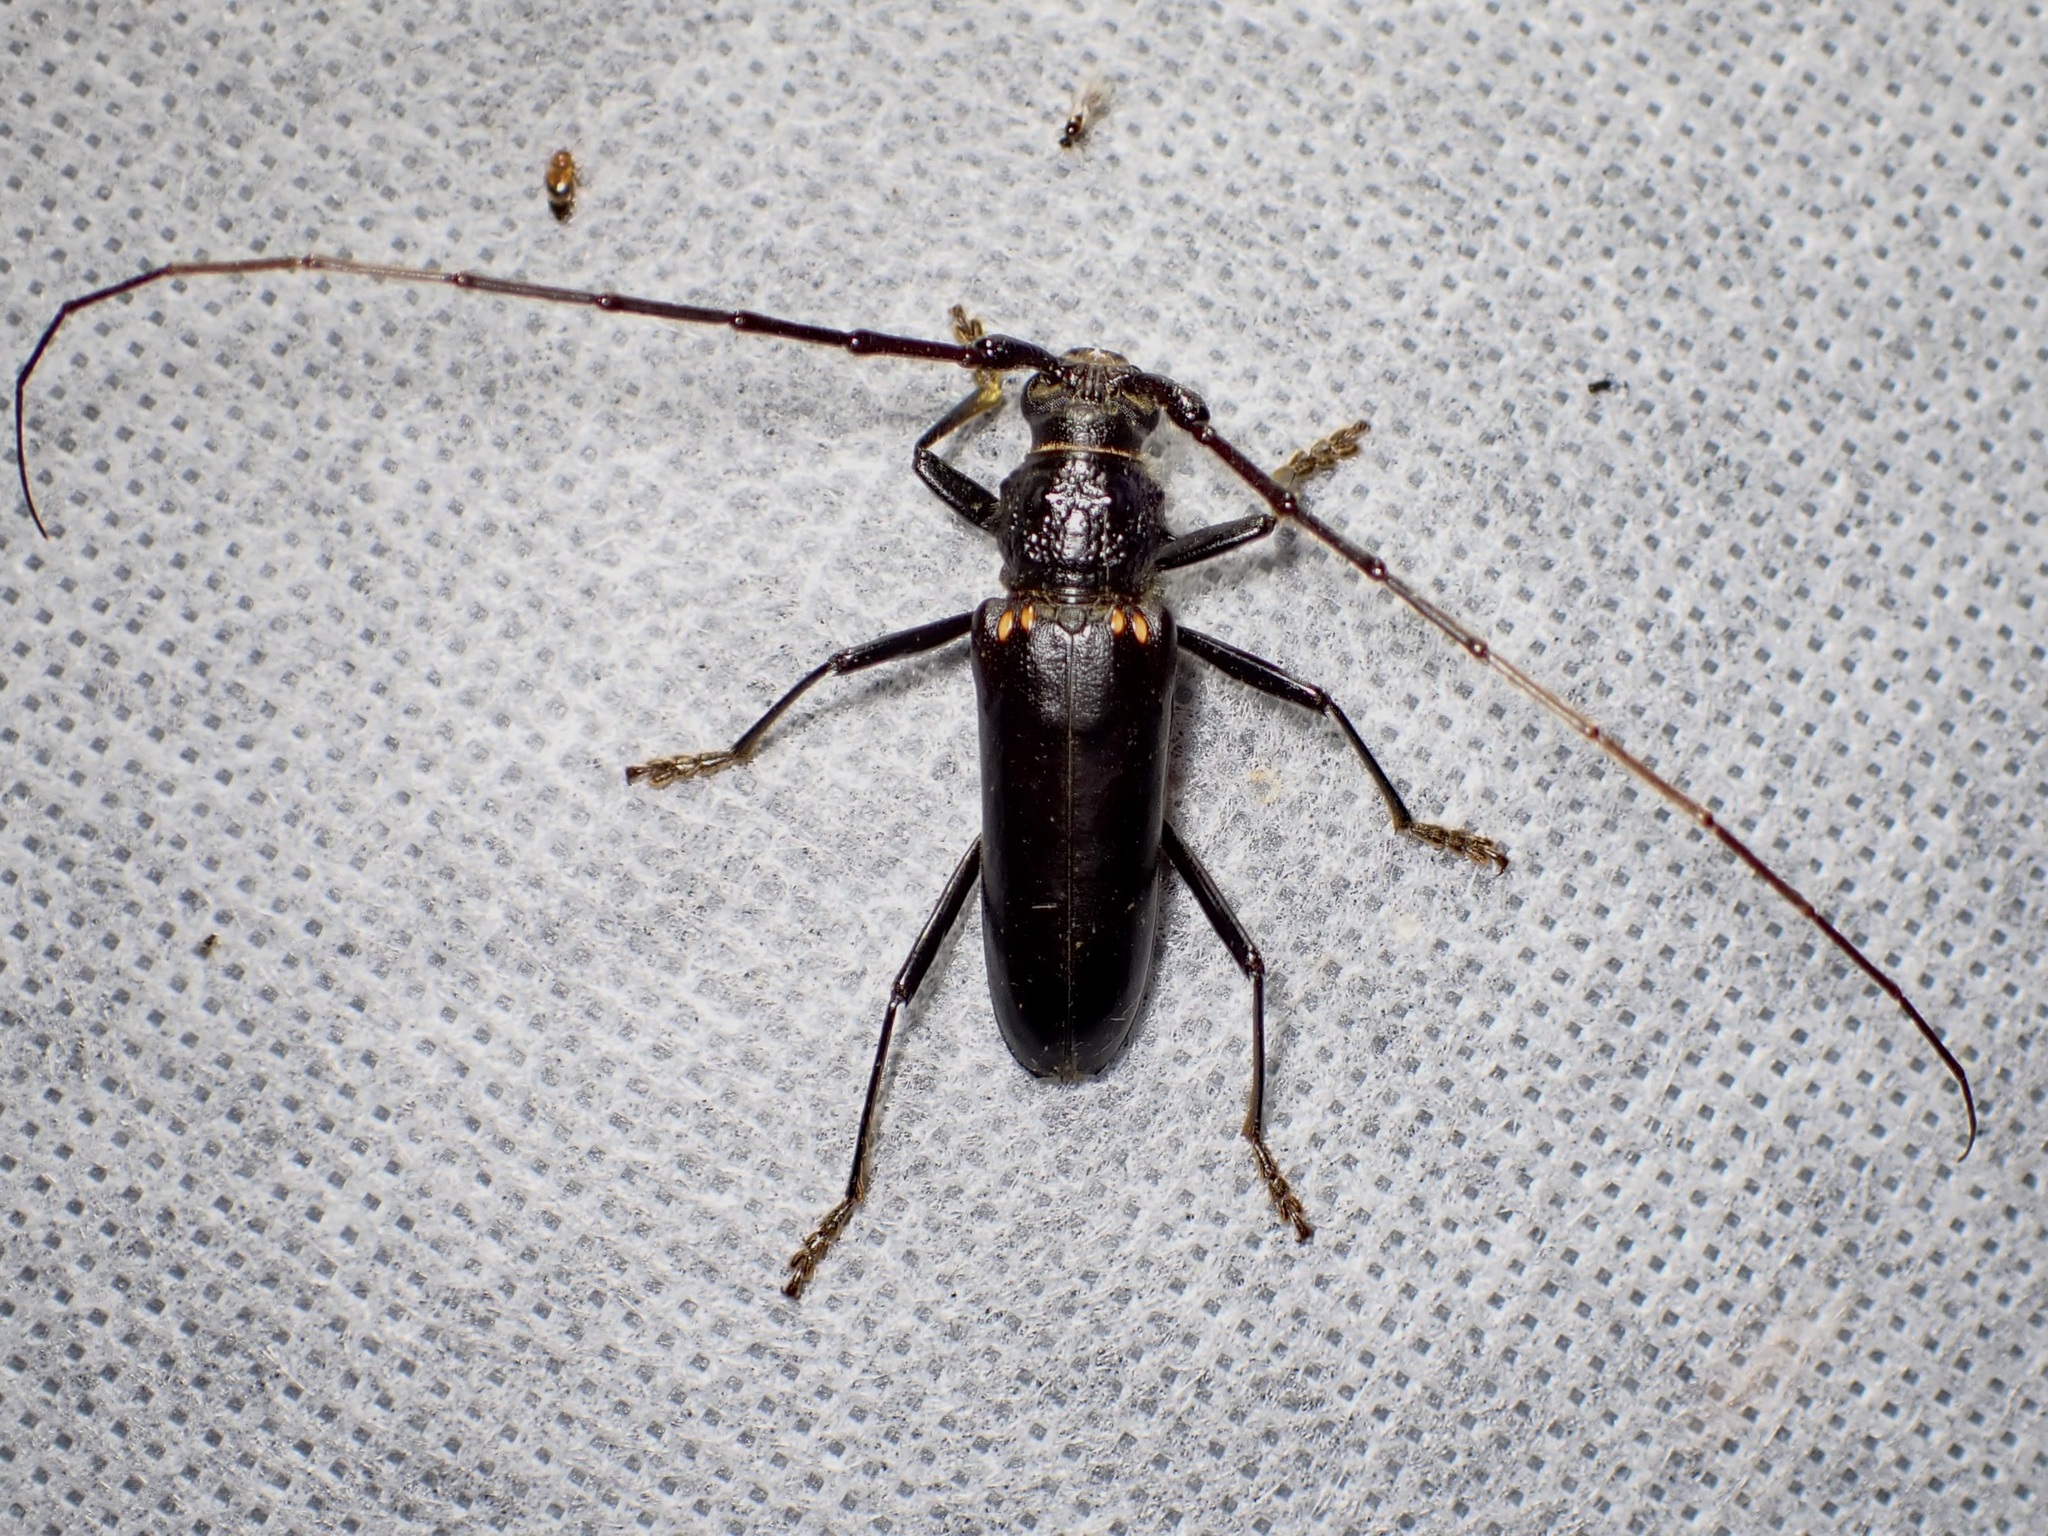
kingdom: Animalia
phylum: Arthropoda
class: Insecta
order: Coleoptera
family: Cerambycidae
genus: Susuacanga
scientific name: Susuacanga ulkei
